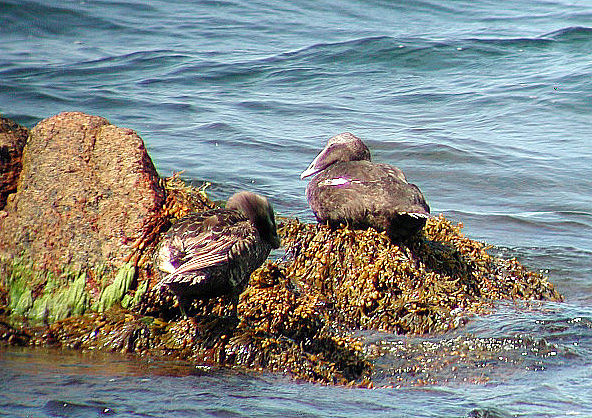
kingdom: Animalia
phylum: Chordata
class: Aves
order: Anseriformes
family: Anatidae
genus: Somateria
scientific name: Somateria mollissima
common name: Common eider
